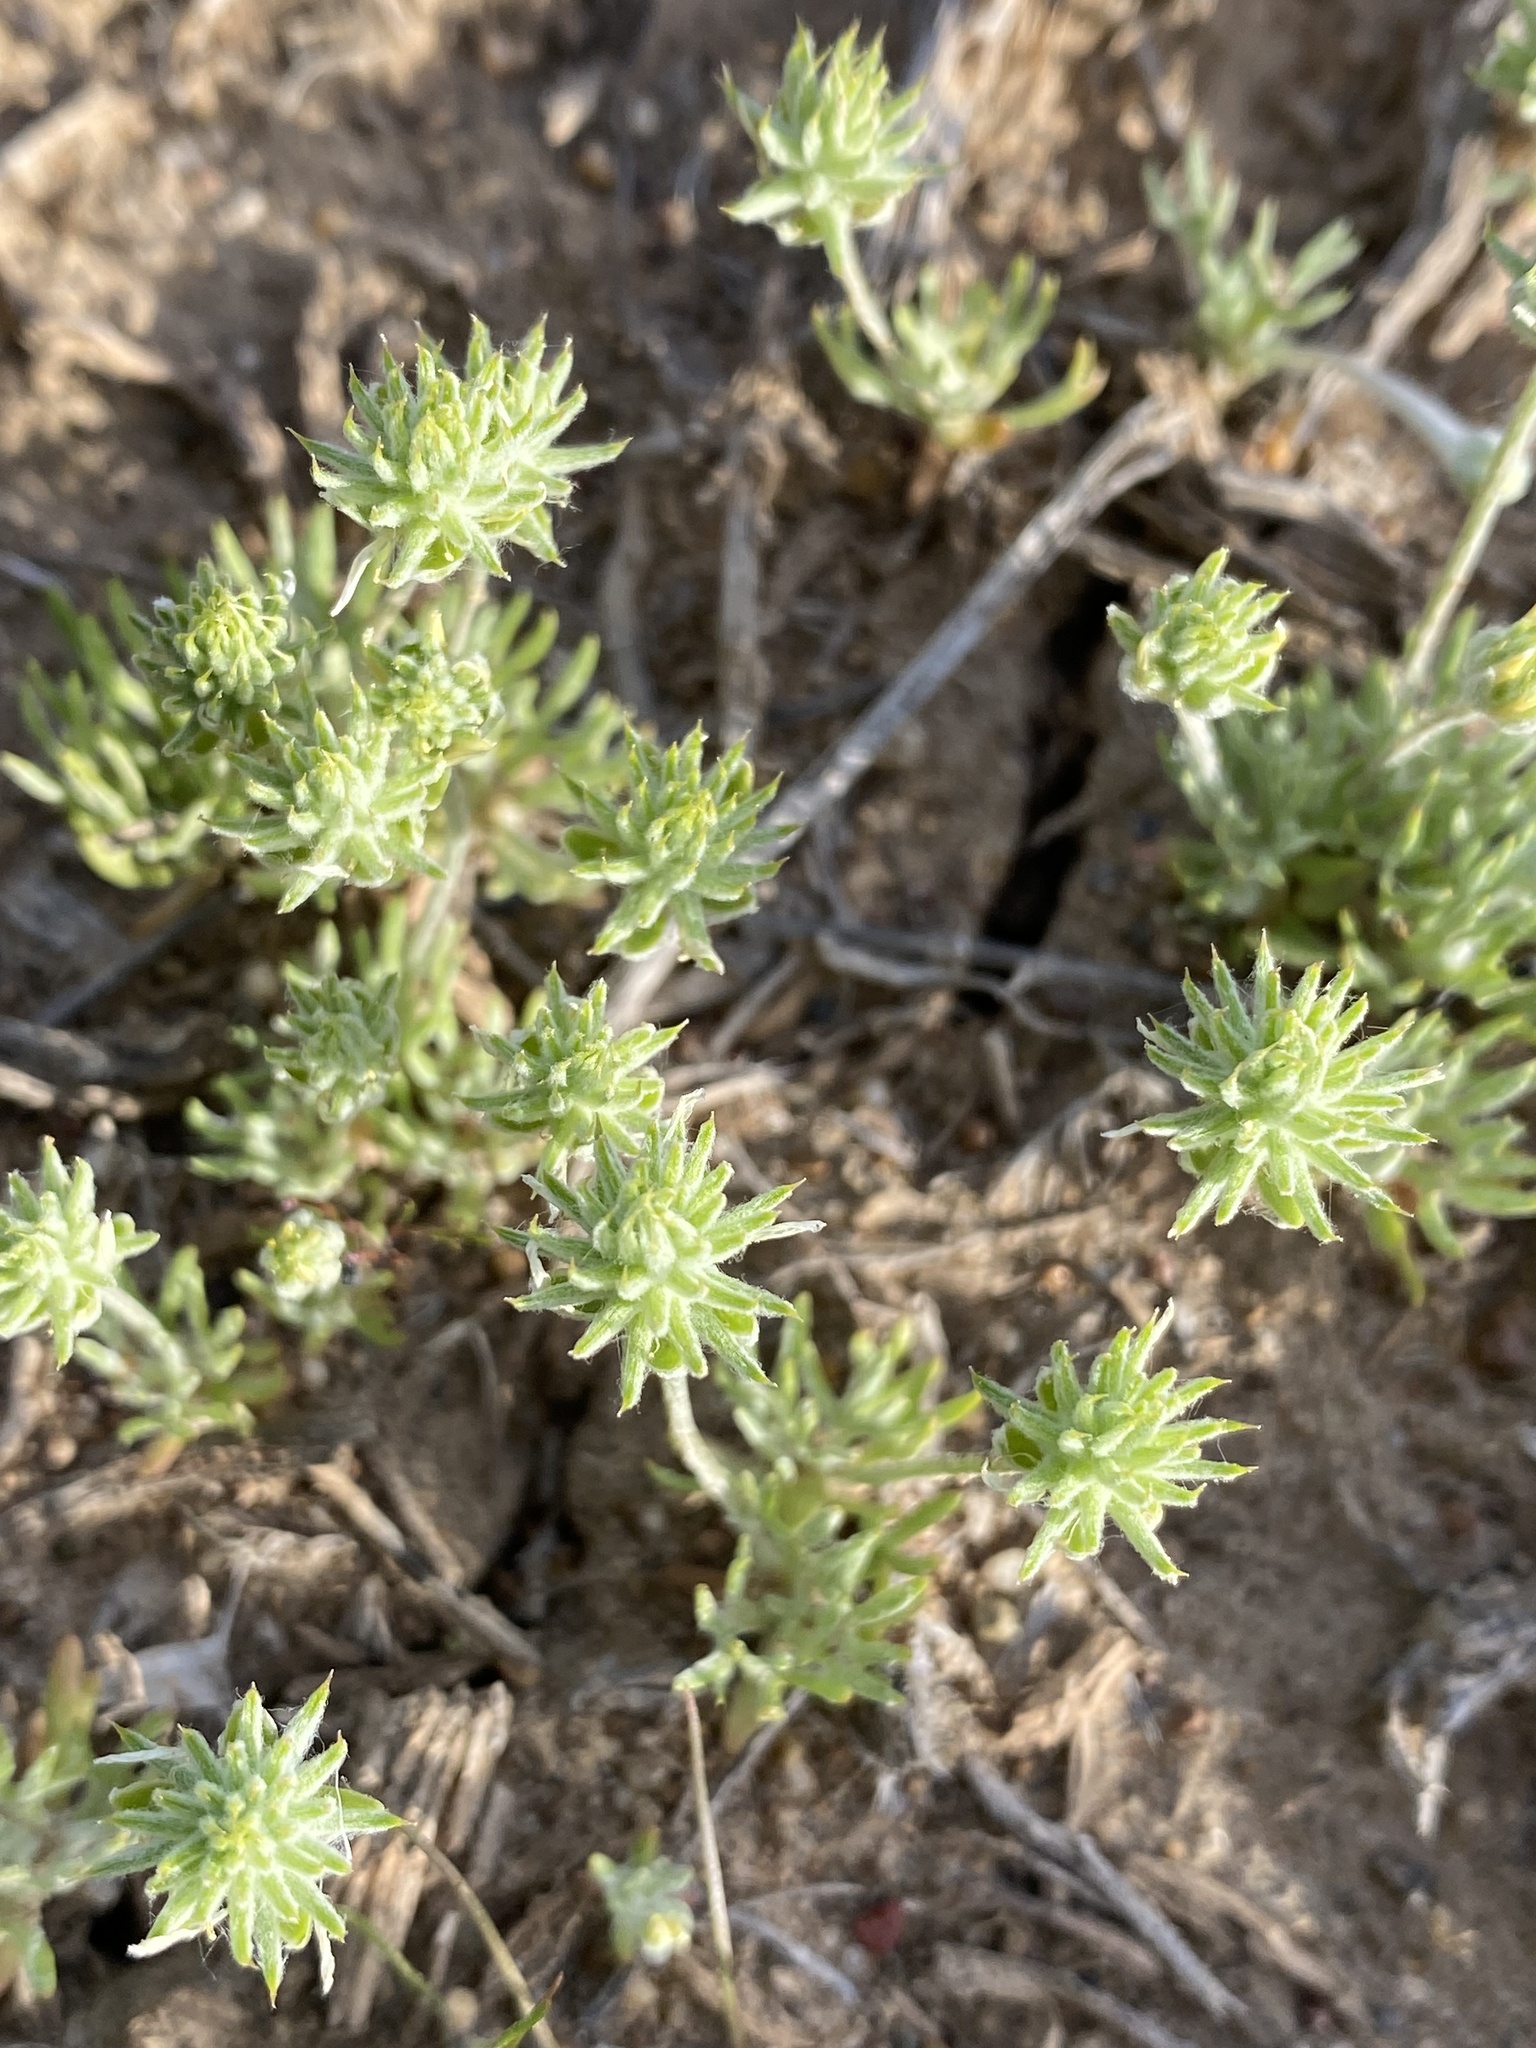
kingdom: Plantae
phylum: Tracheophyta
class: Magnoliopsida
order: Ranunculales
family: Ranunculaceae
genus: Ceratocephala
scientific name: Ceratocephala orthoceras
